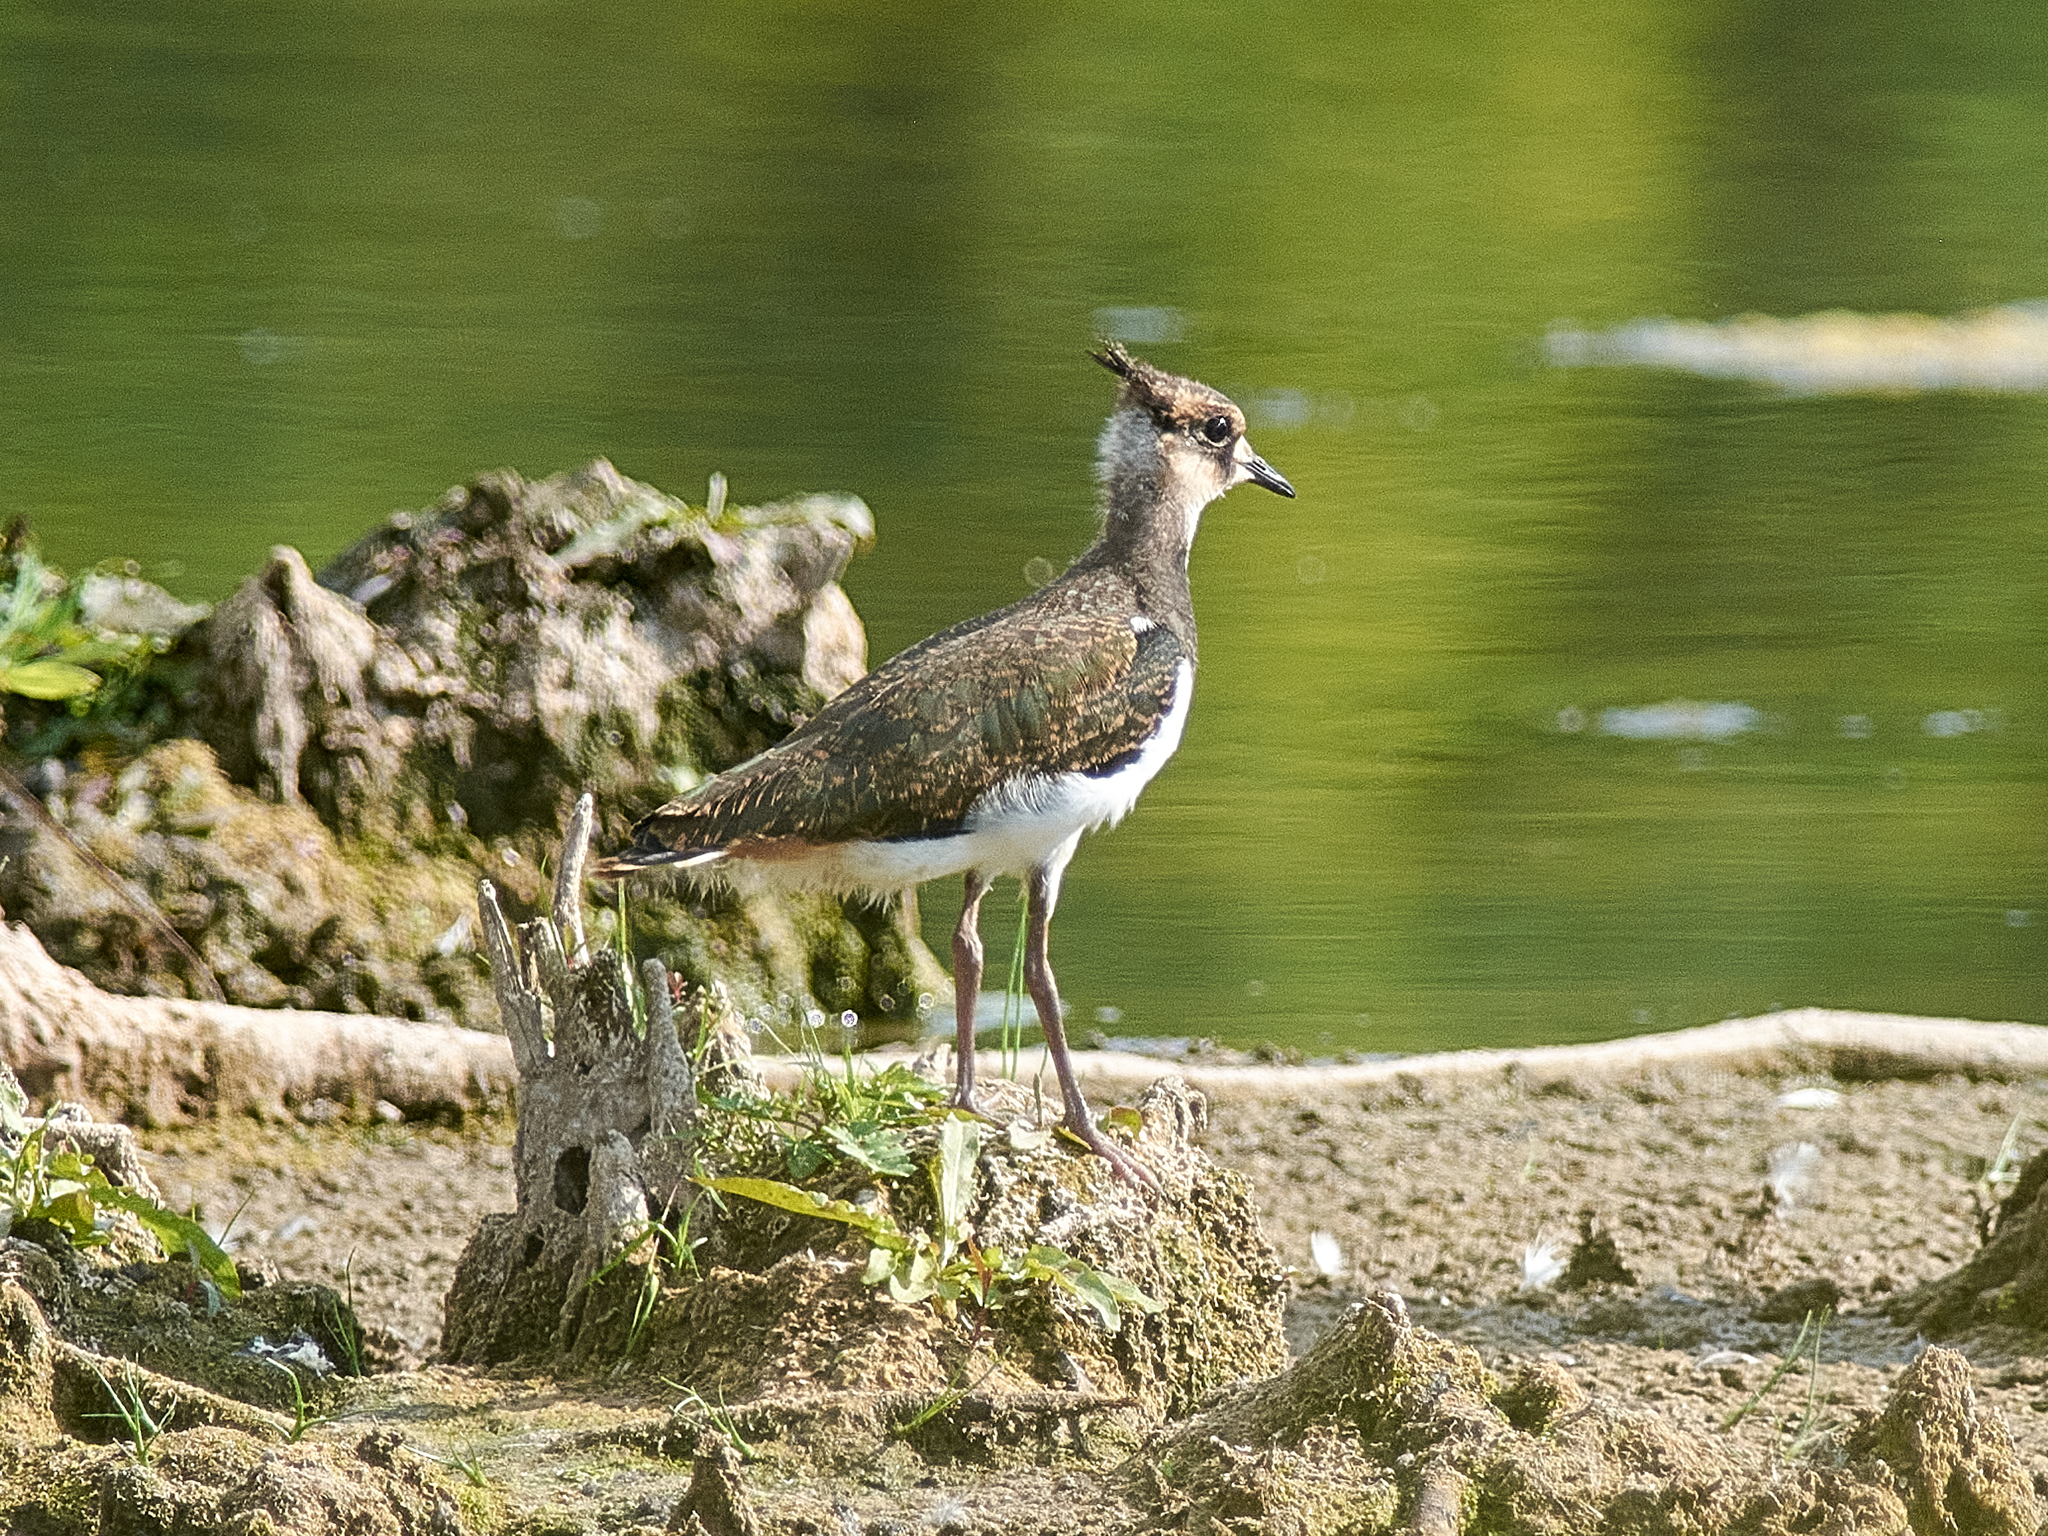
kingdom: Animalia
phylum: Chordata
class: Aves
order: Charadriiformes
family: Charadriidae
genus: Vanellus
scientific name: Vanellus vanellus
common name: Northern lapwing
